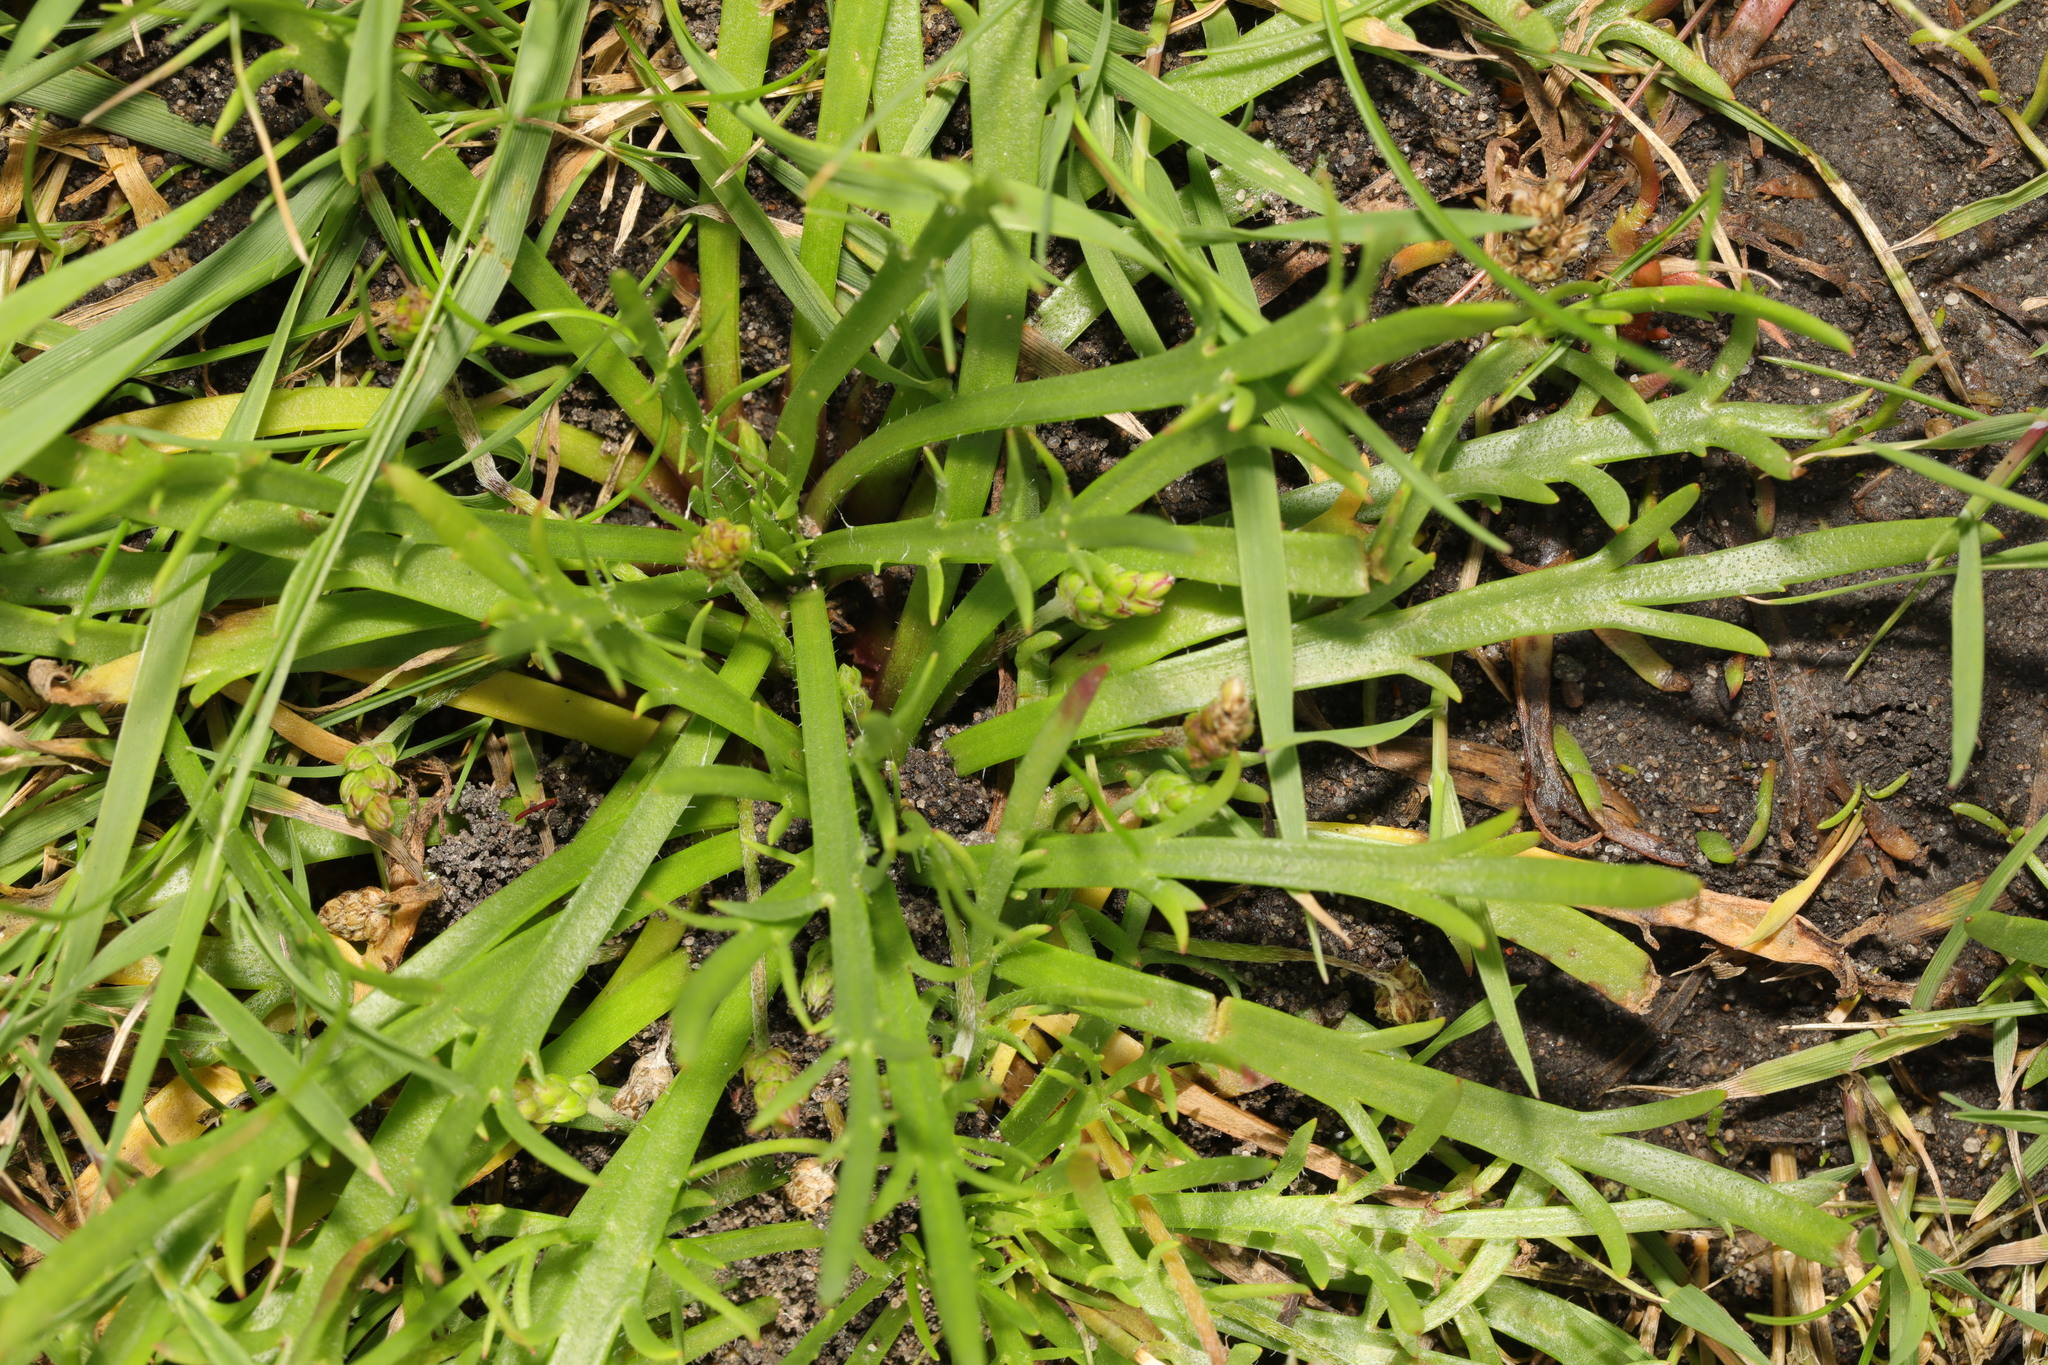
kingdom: Plantae
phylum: Tracheophyta
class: Magnoliopsida
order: Lamiales
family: Plantaginaceae
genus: Plantago
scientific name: Plantago coronopus
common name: Buck's-horn plantain
